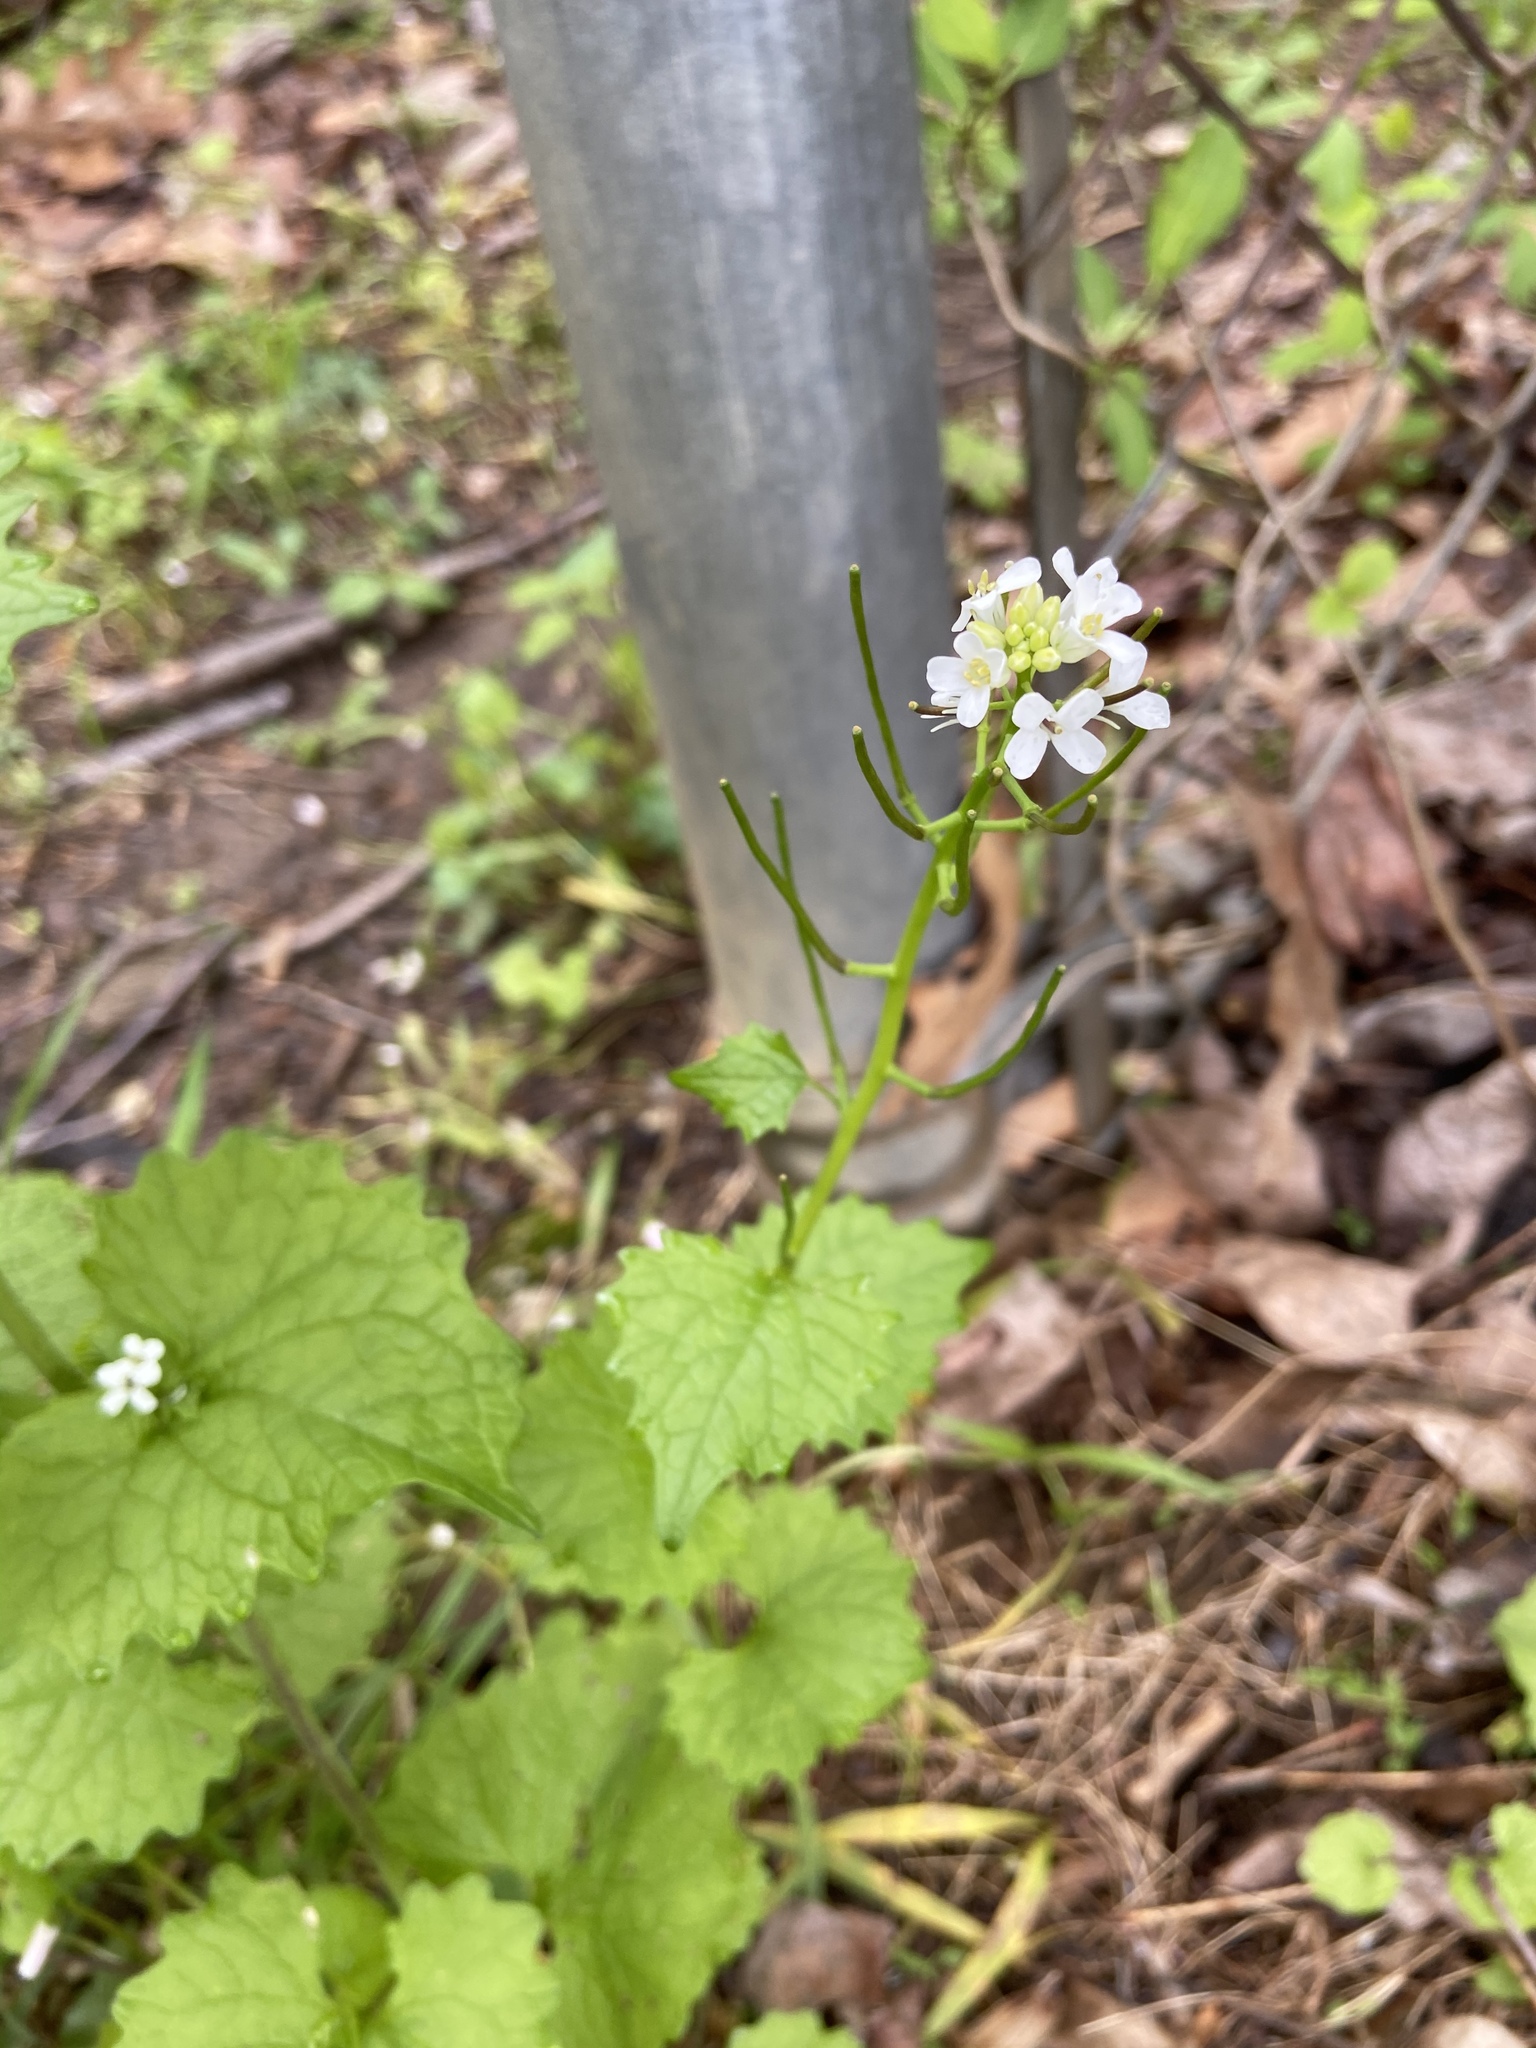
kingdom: Plantae
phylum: Tracheophyta
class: Magnoliopsida
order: Brassicales
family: Brassicaceae
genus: Alliaria
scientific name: Alliaria petiolata
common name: Garlic mustard
